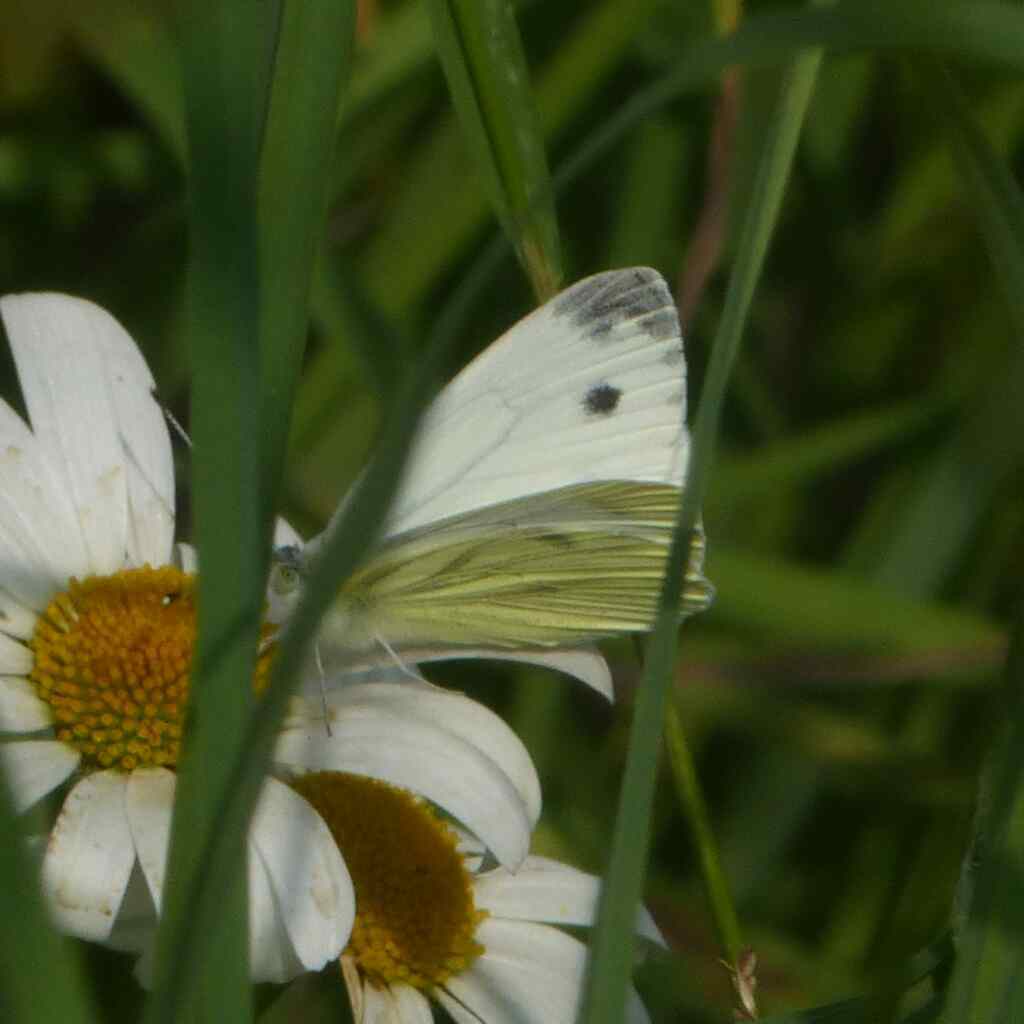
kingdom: Animalia
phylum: Arthropoda
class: Insecta
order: Lepidoptera
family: Pieridae
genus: Pieris
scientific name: Pieris napi
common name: Green-veined white
